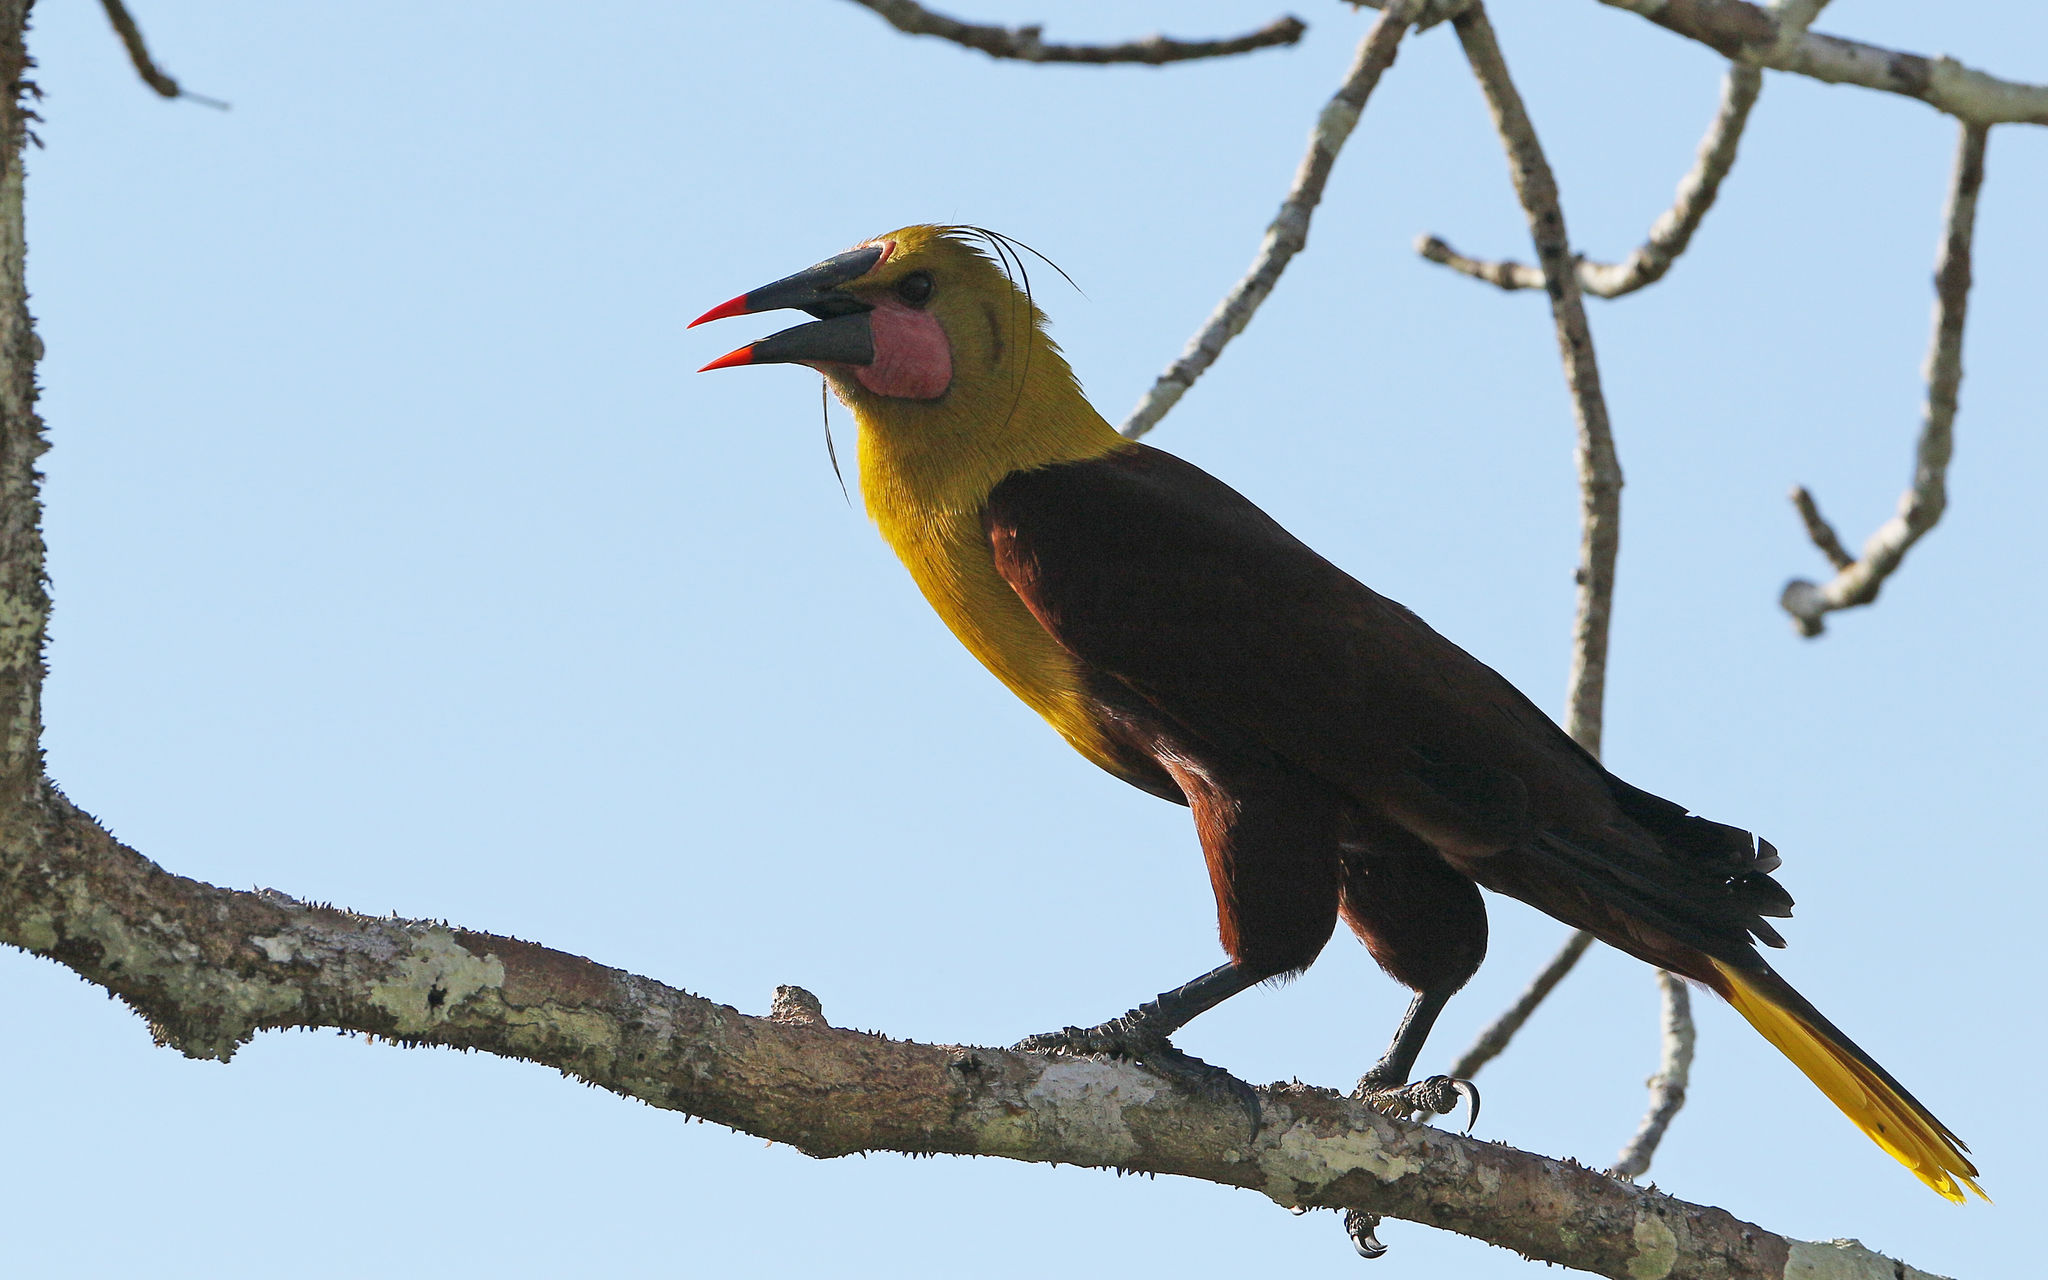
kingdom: Animalia
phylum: Chordata
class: Aves
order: Passeriformes
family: Icteridae
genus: Psarocolius
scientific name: Psarocolius bifasciatus
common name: Olive oropendola
